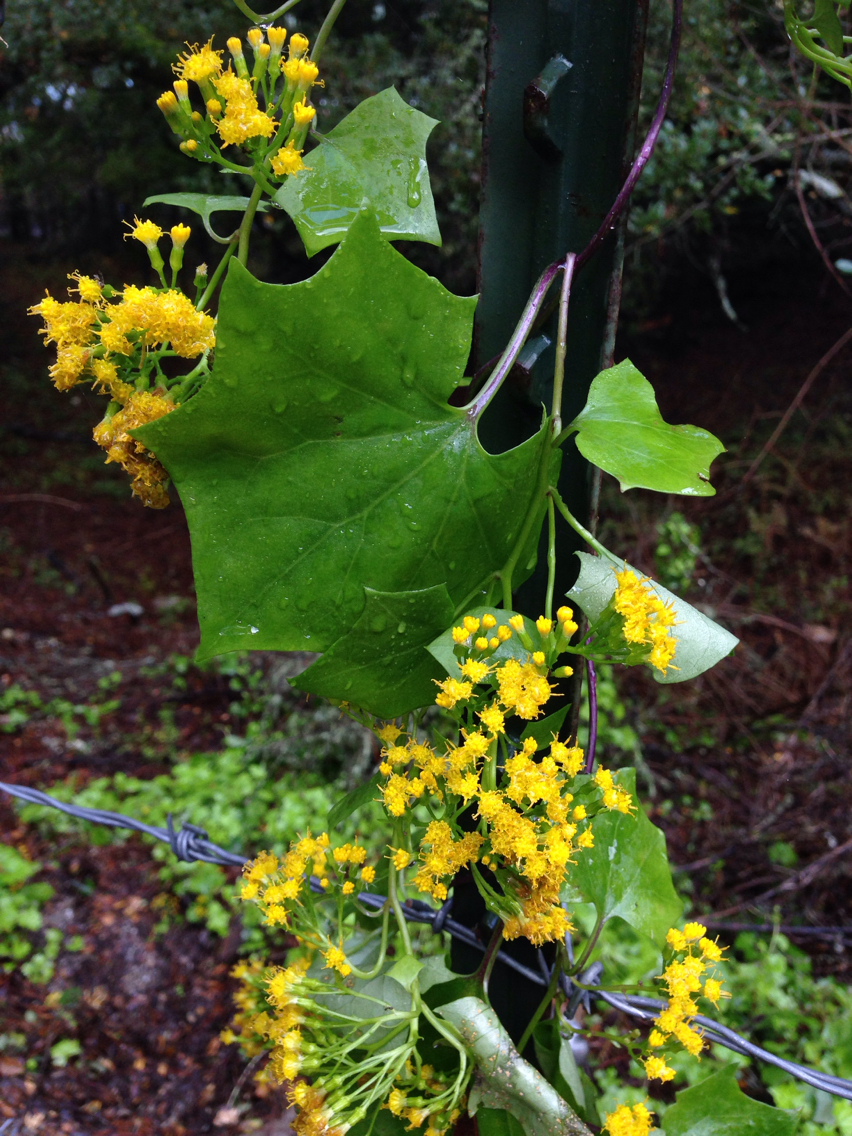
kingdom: Plantae
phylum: Tracheophyta
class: Magnoliopsida
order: Asterales
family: Asteraceae
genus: Delairea
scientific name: Delairea odorata
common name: Cape-ivy
